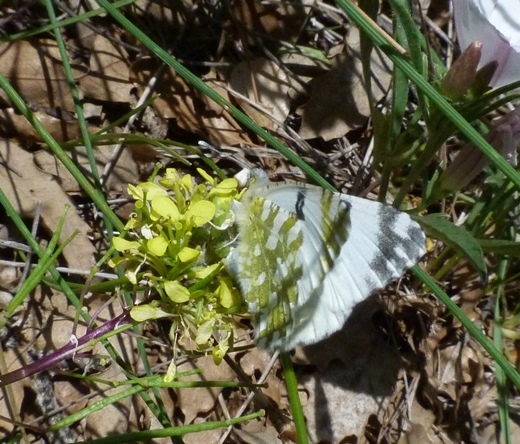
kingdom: Animalia
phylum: Arthropoda
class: Insecta
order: Lepidoptera
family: Pieridae
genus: Euchloe
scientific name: Euchloe crameri
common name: Western dappled white
